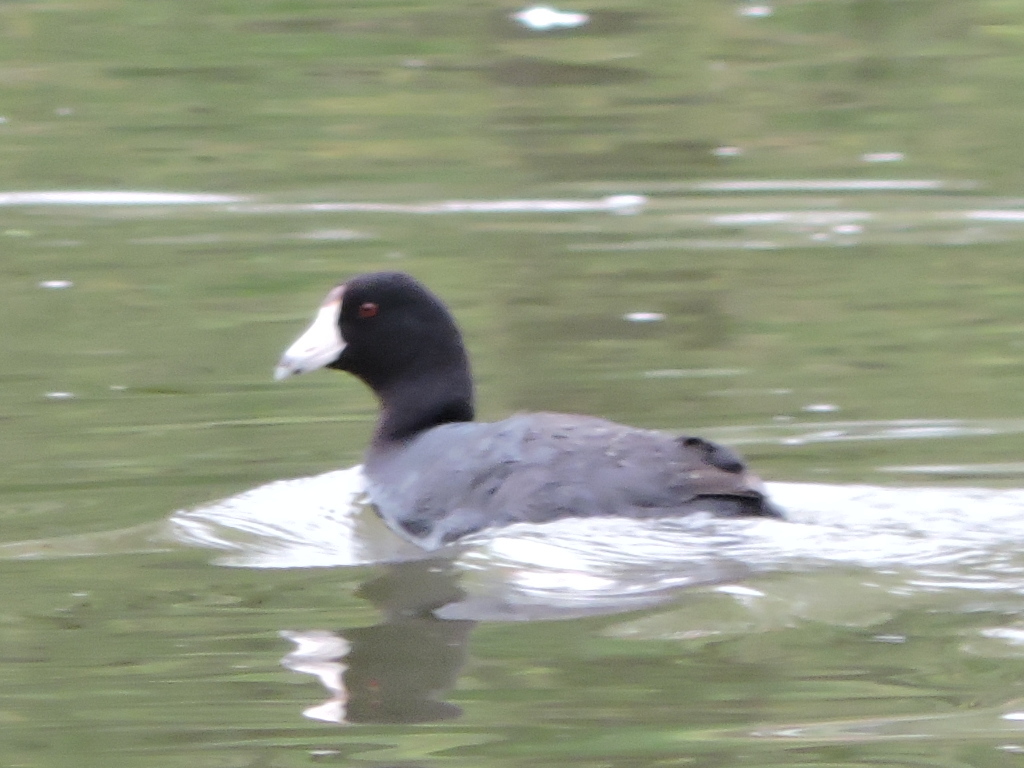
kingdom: Animalia
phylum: Chordata
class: Aves
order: Gruiformes
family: Rallidae
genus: Fulica
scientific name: Fulica americana
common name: American coot
